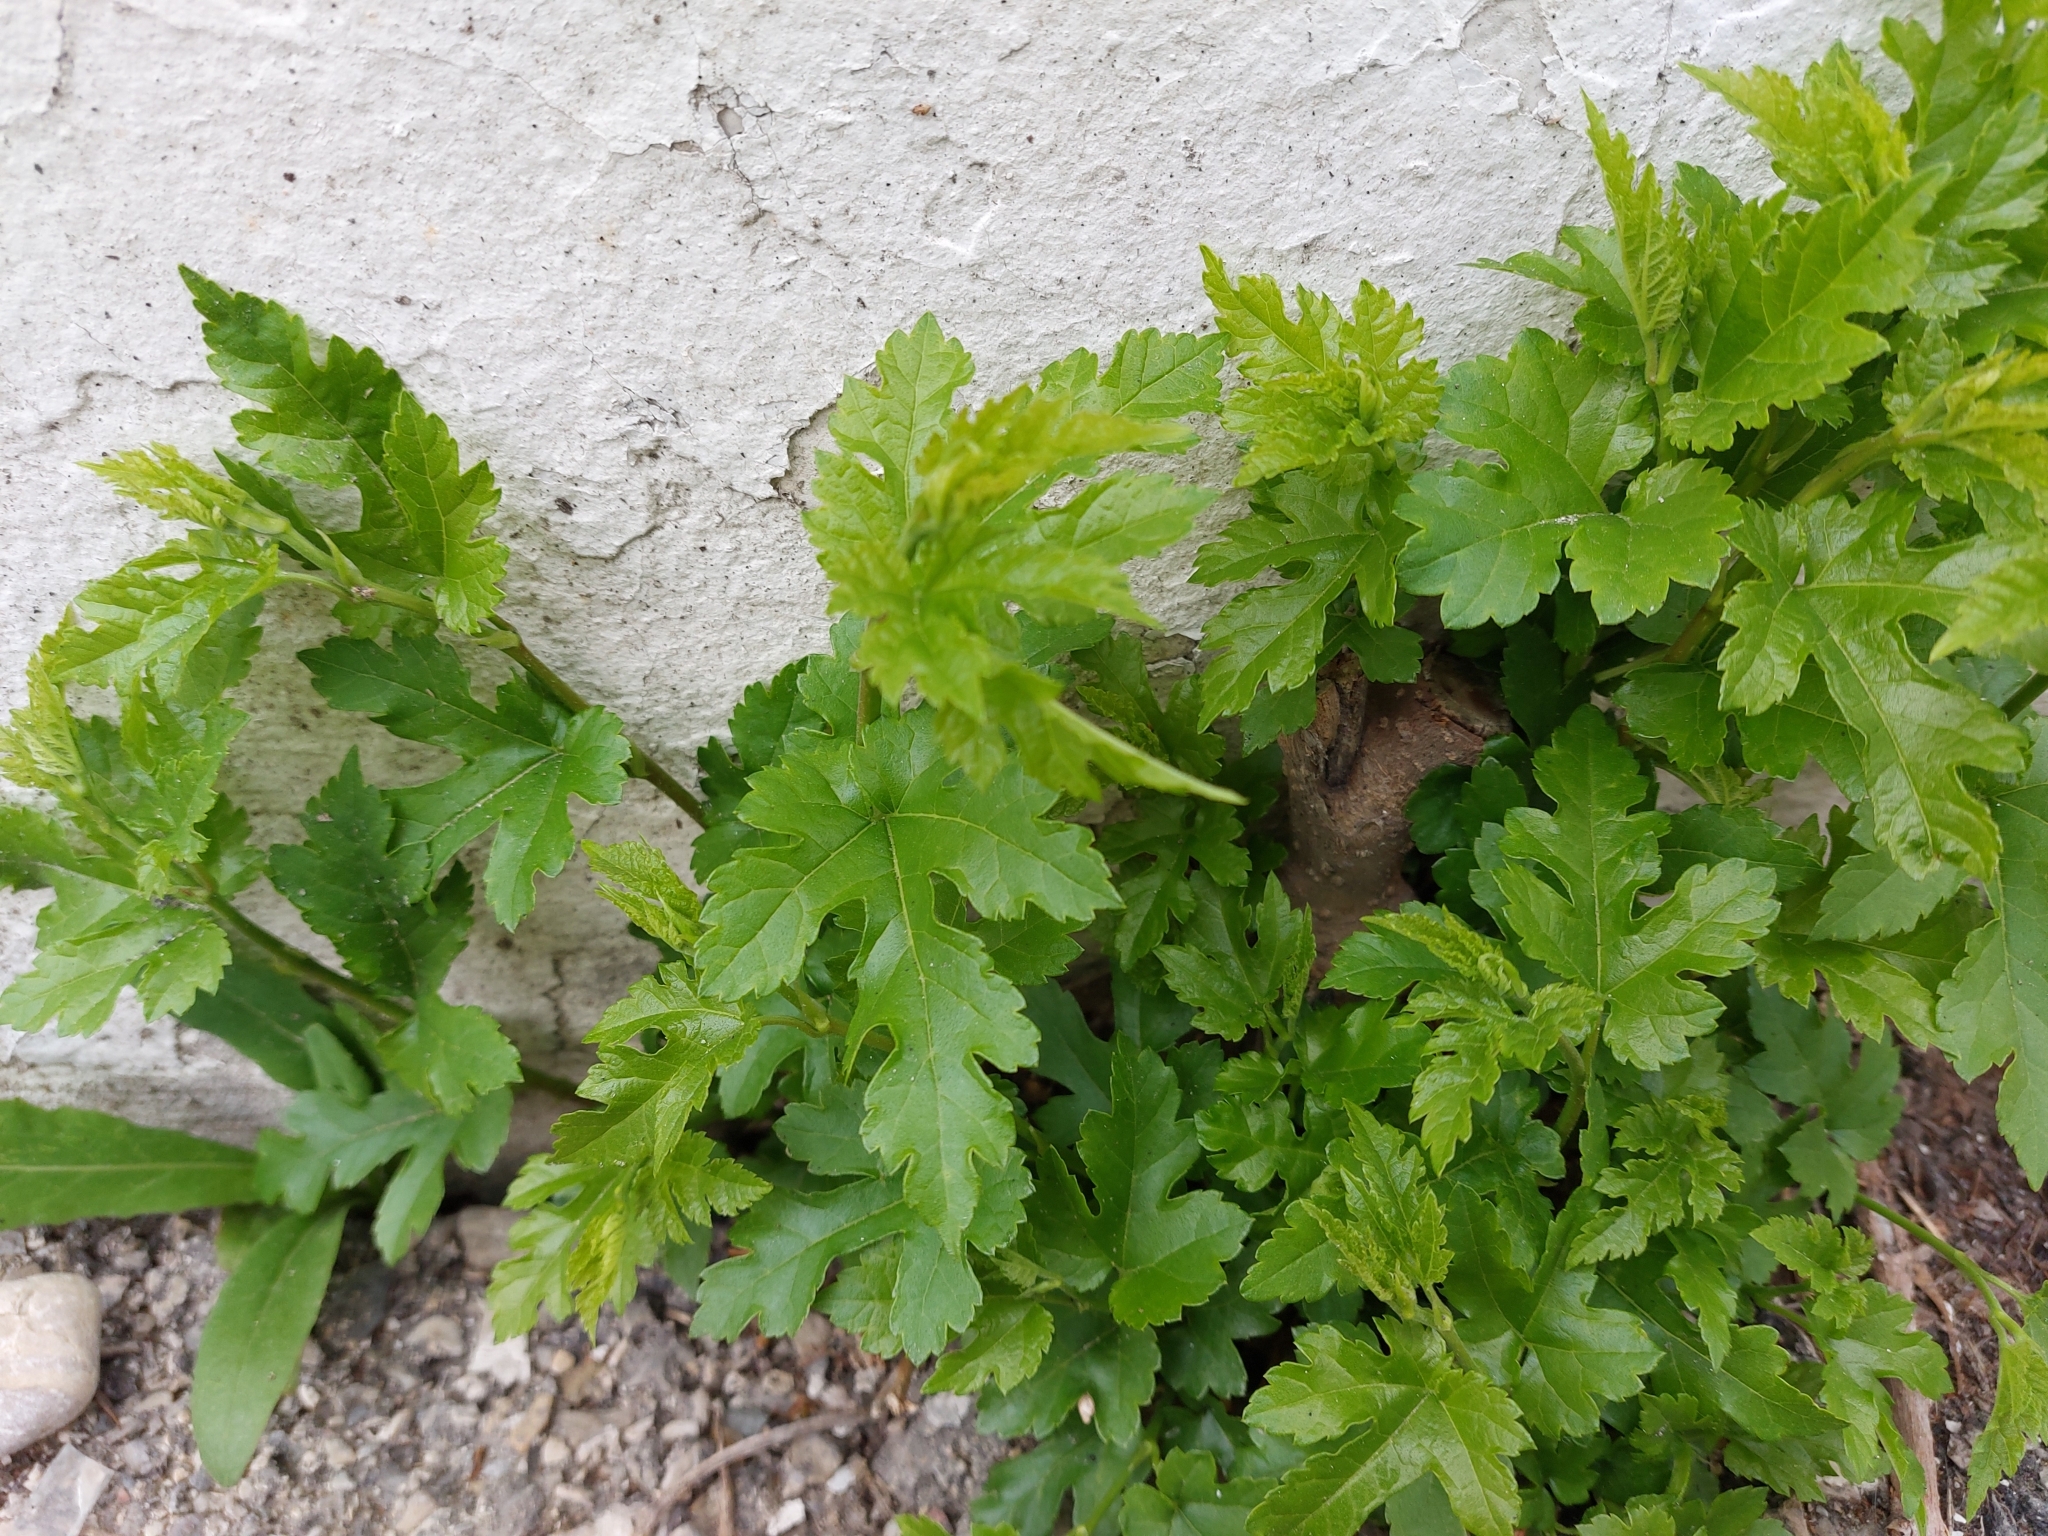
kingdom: Plantae
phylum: Tracheophyta
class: Magnoliopsida
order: Rosales
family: Moraceae
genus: Morus
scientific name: Morus indica
